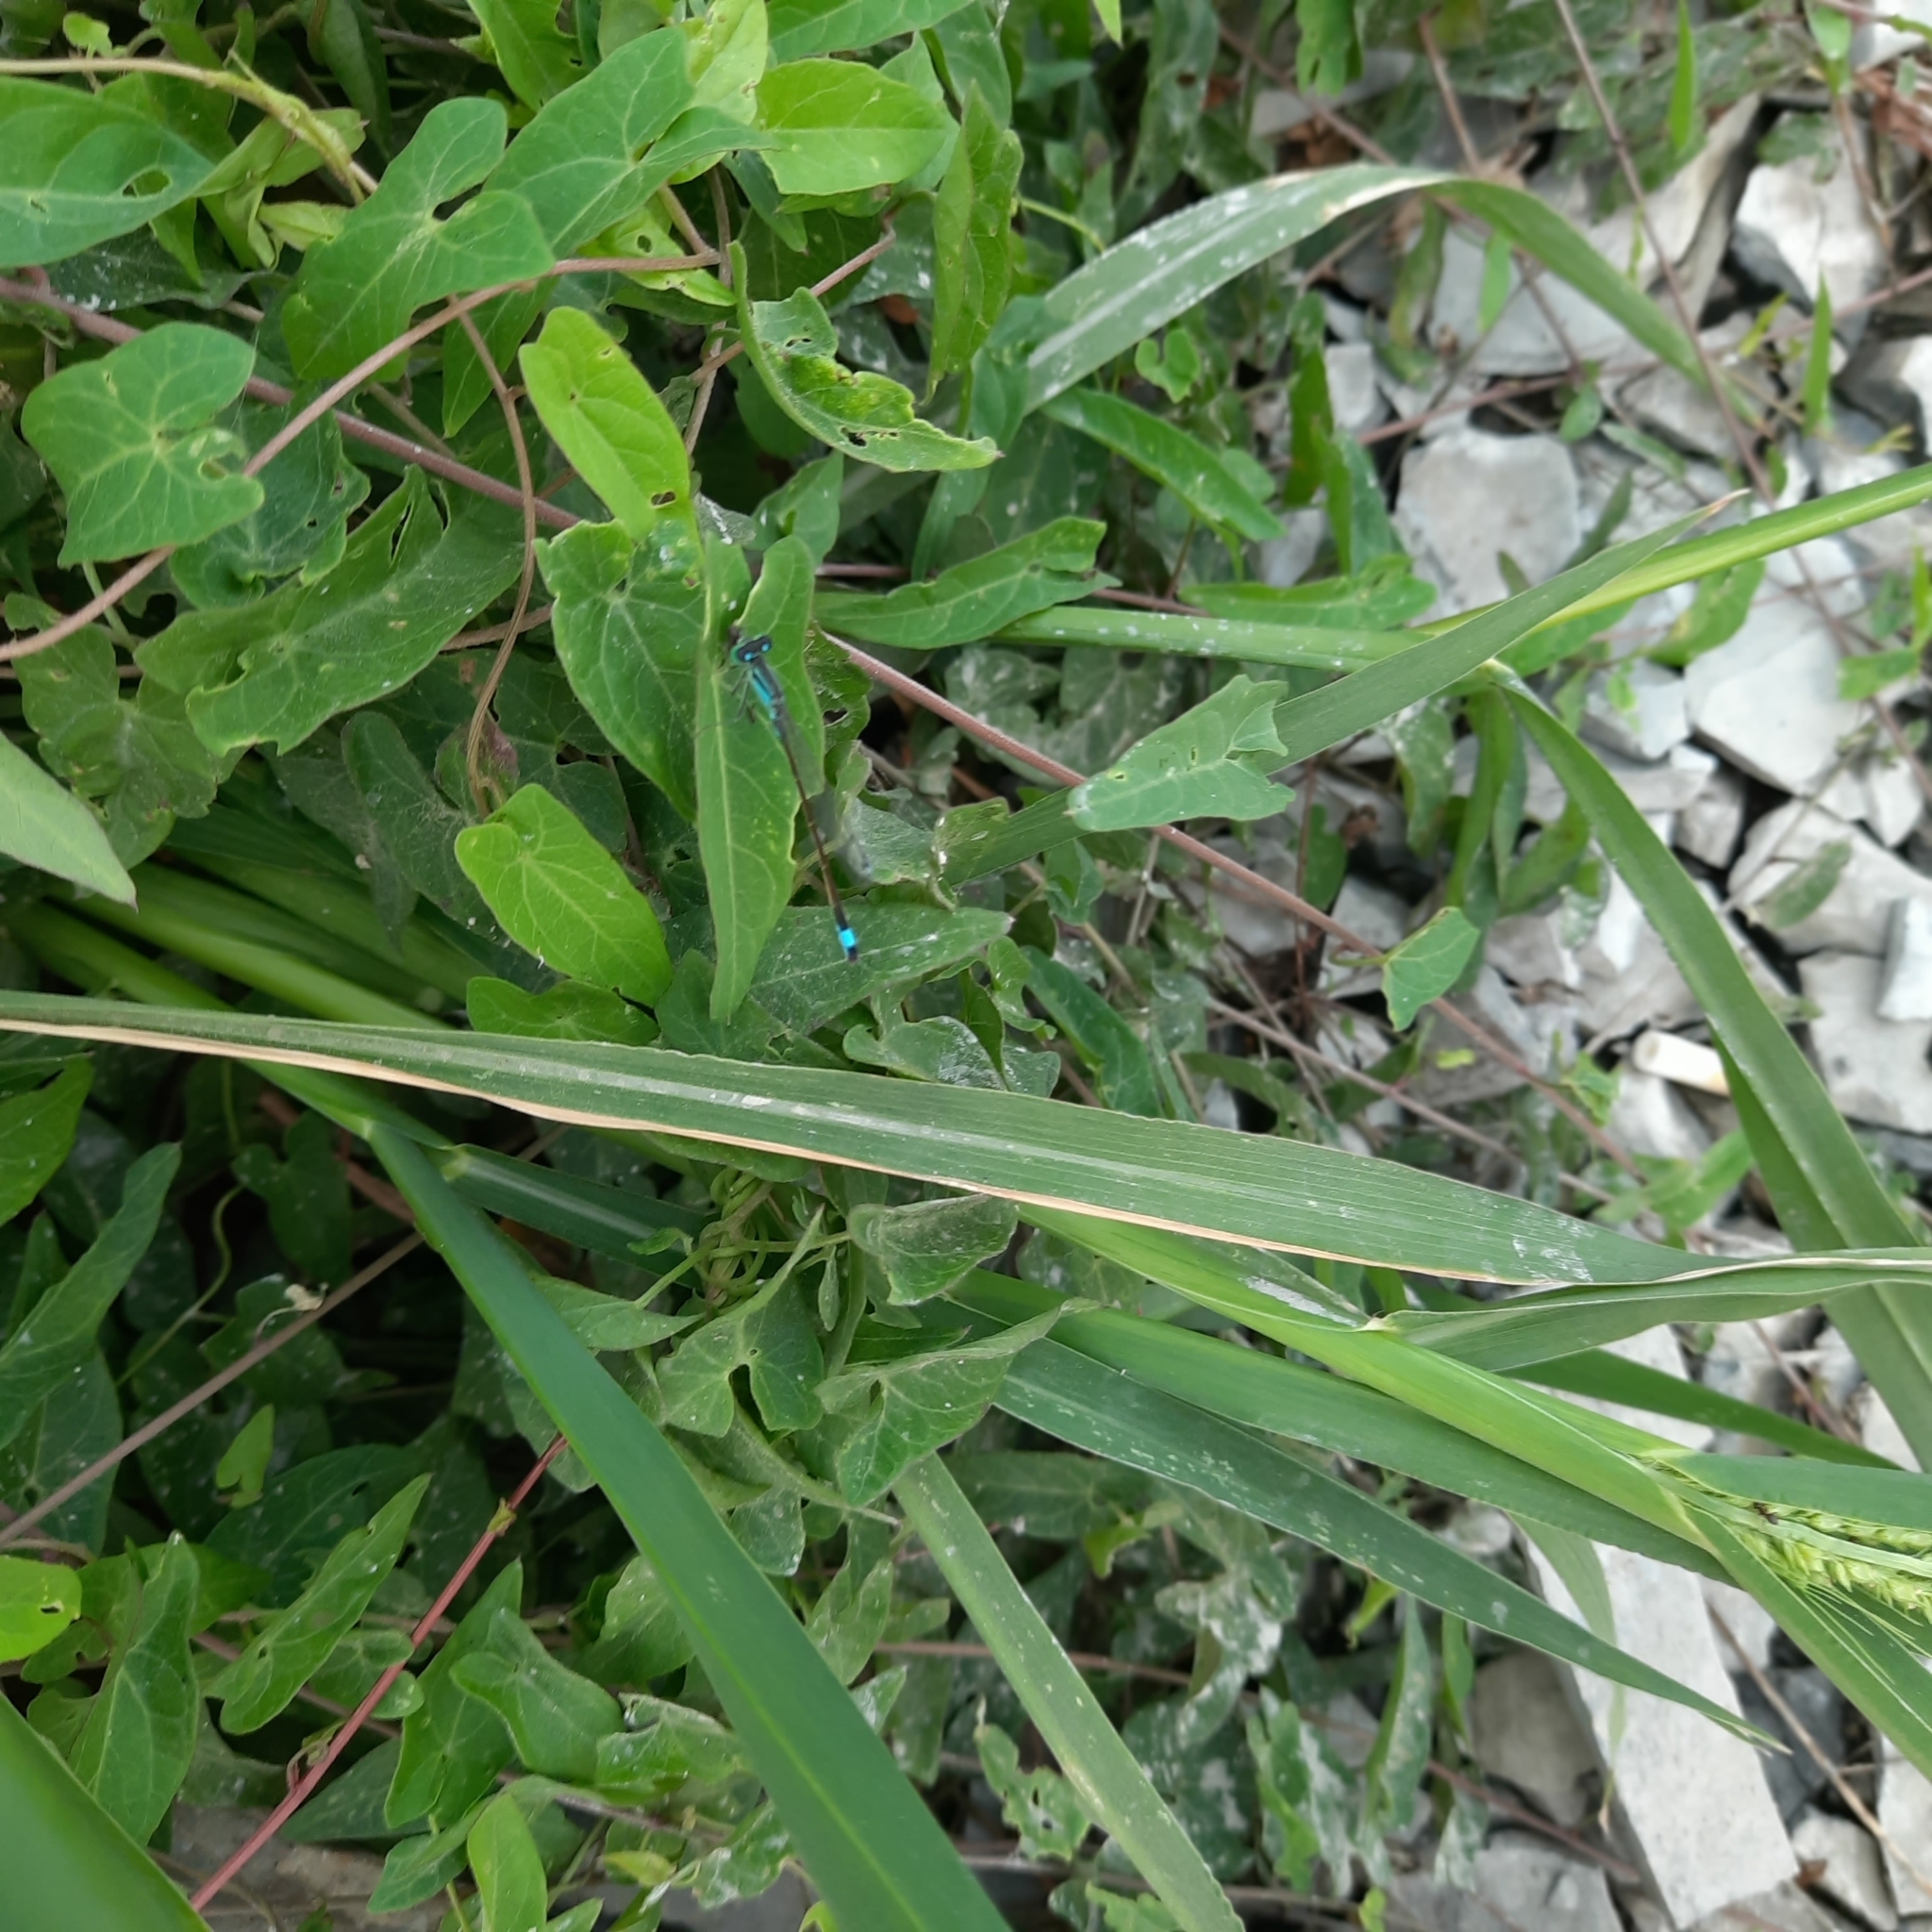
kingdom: Animalia
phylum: Arthropoda
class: Insecta
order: Odonata
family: Coenagrionidae
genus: Ischnura
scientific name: Ischnura elegans
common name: Blue-tailed damselfly
